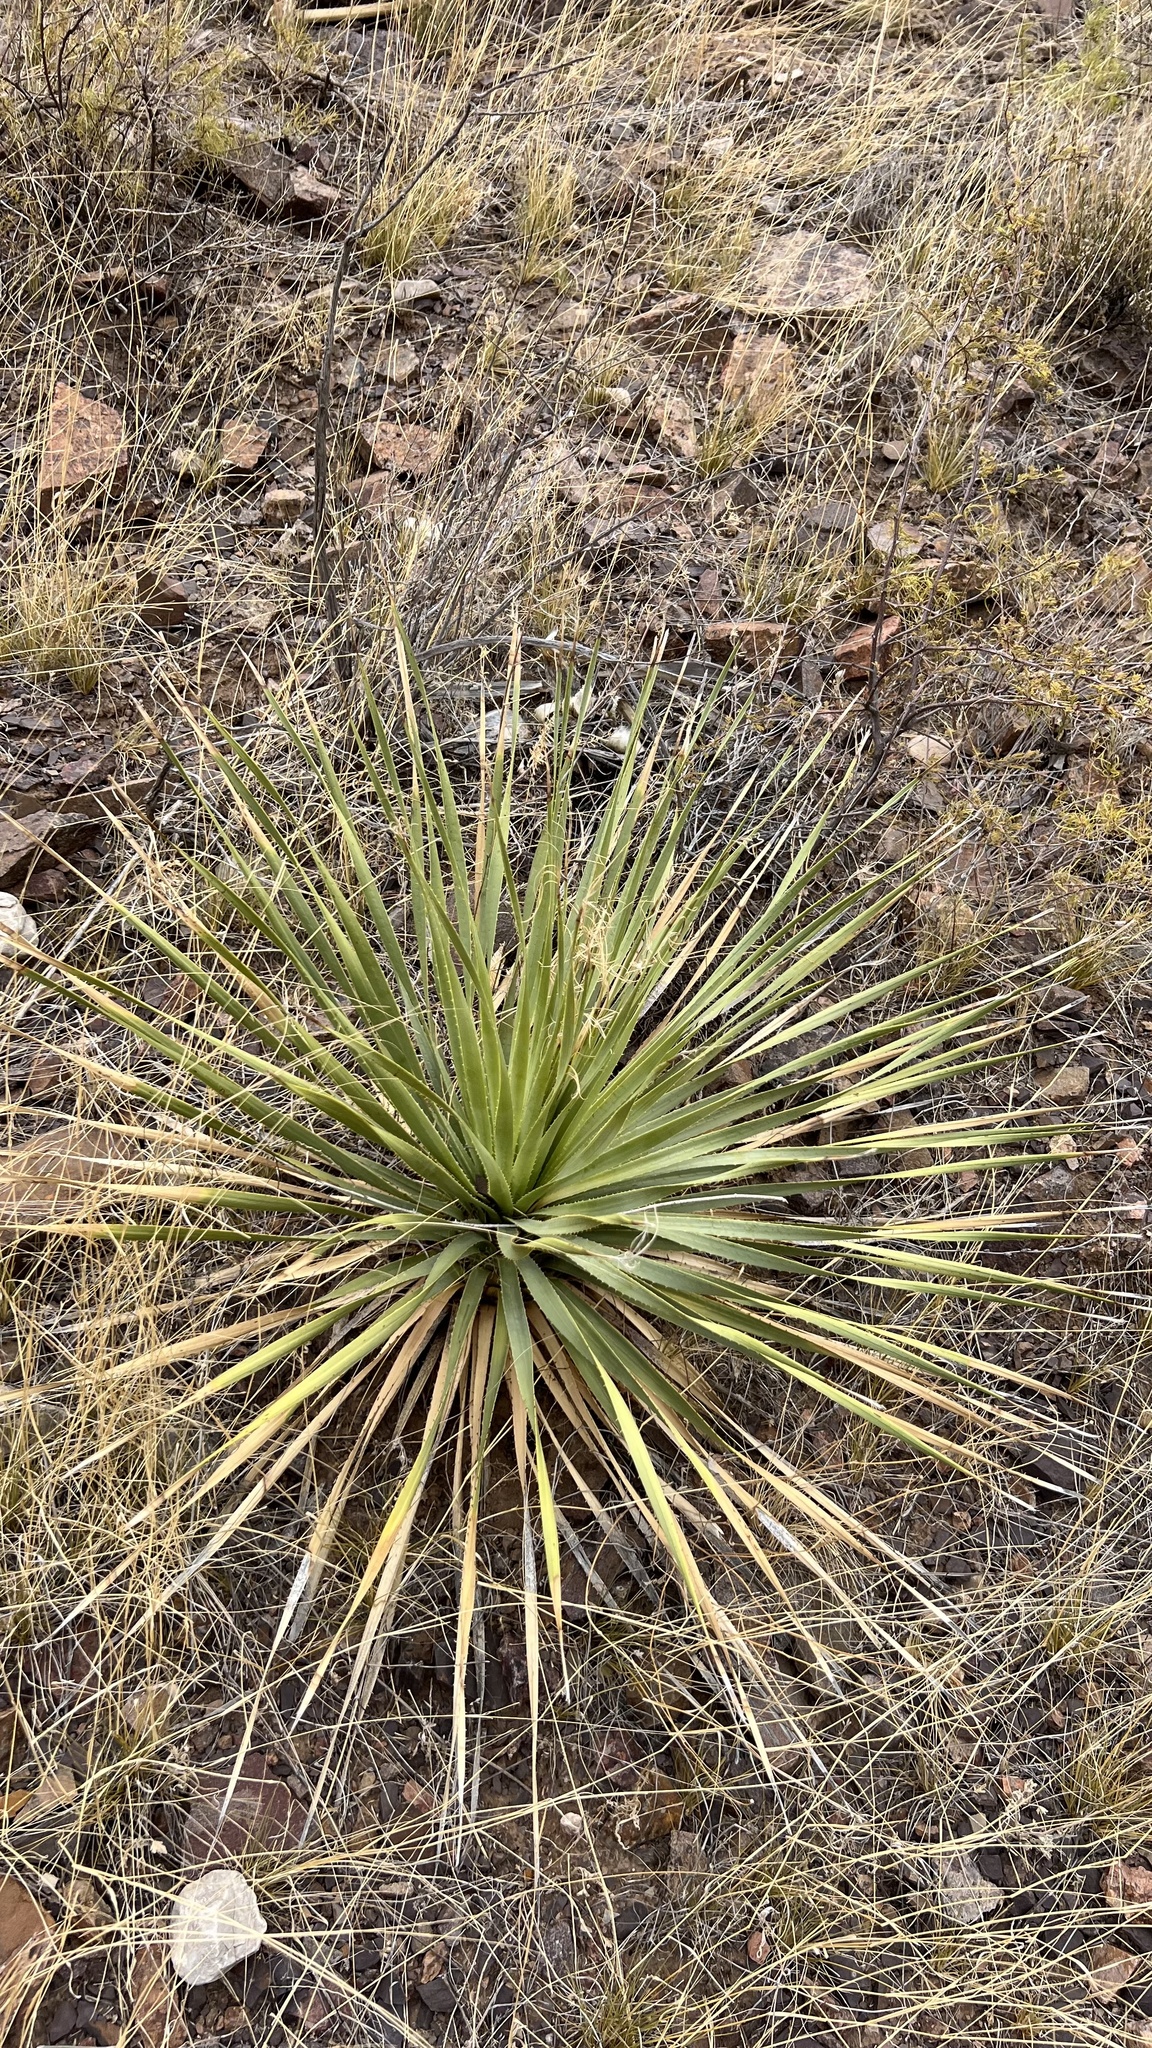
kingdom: Plantae
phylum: Tracheophyta
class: Liliopsida
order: Asparagales
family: Asparagaceae
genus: Dasylirion
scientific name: Dasylirion wheeleri
